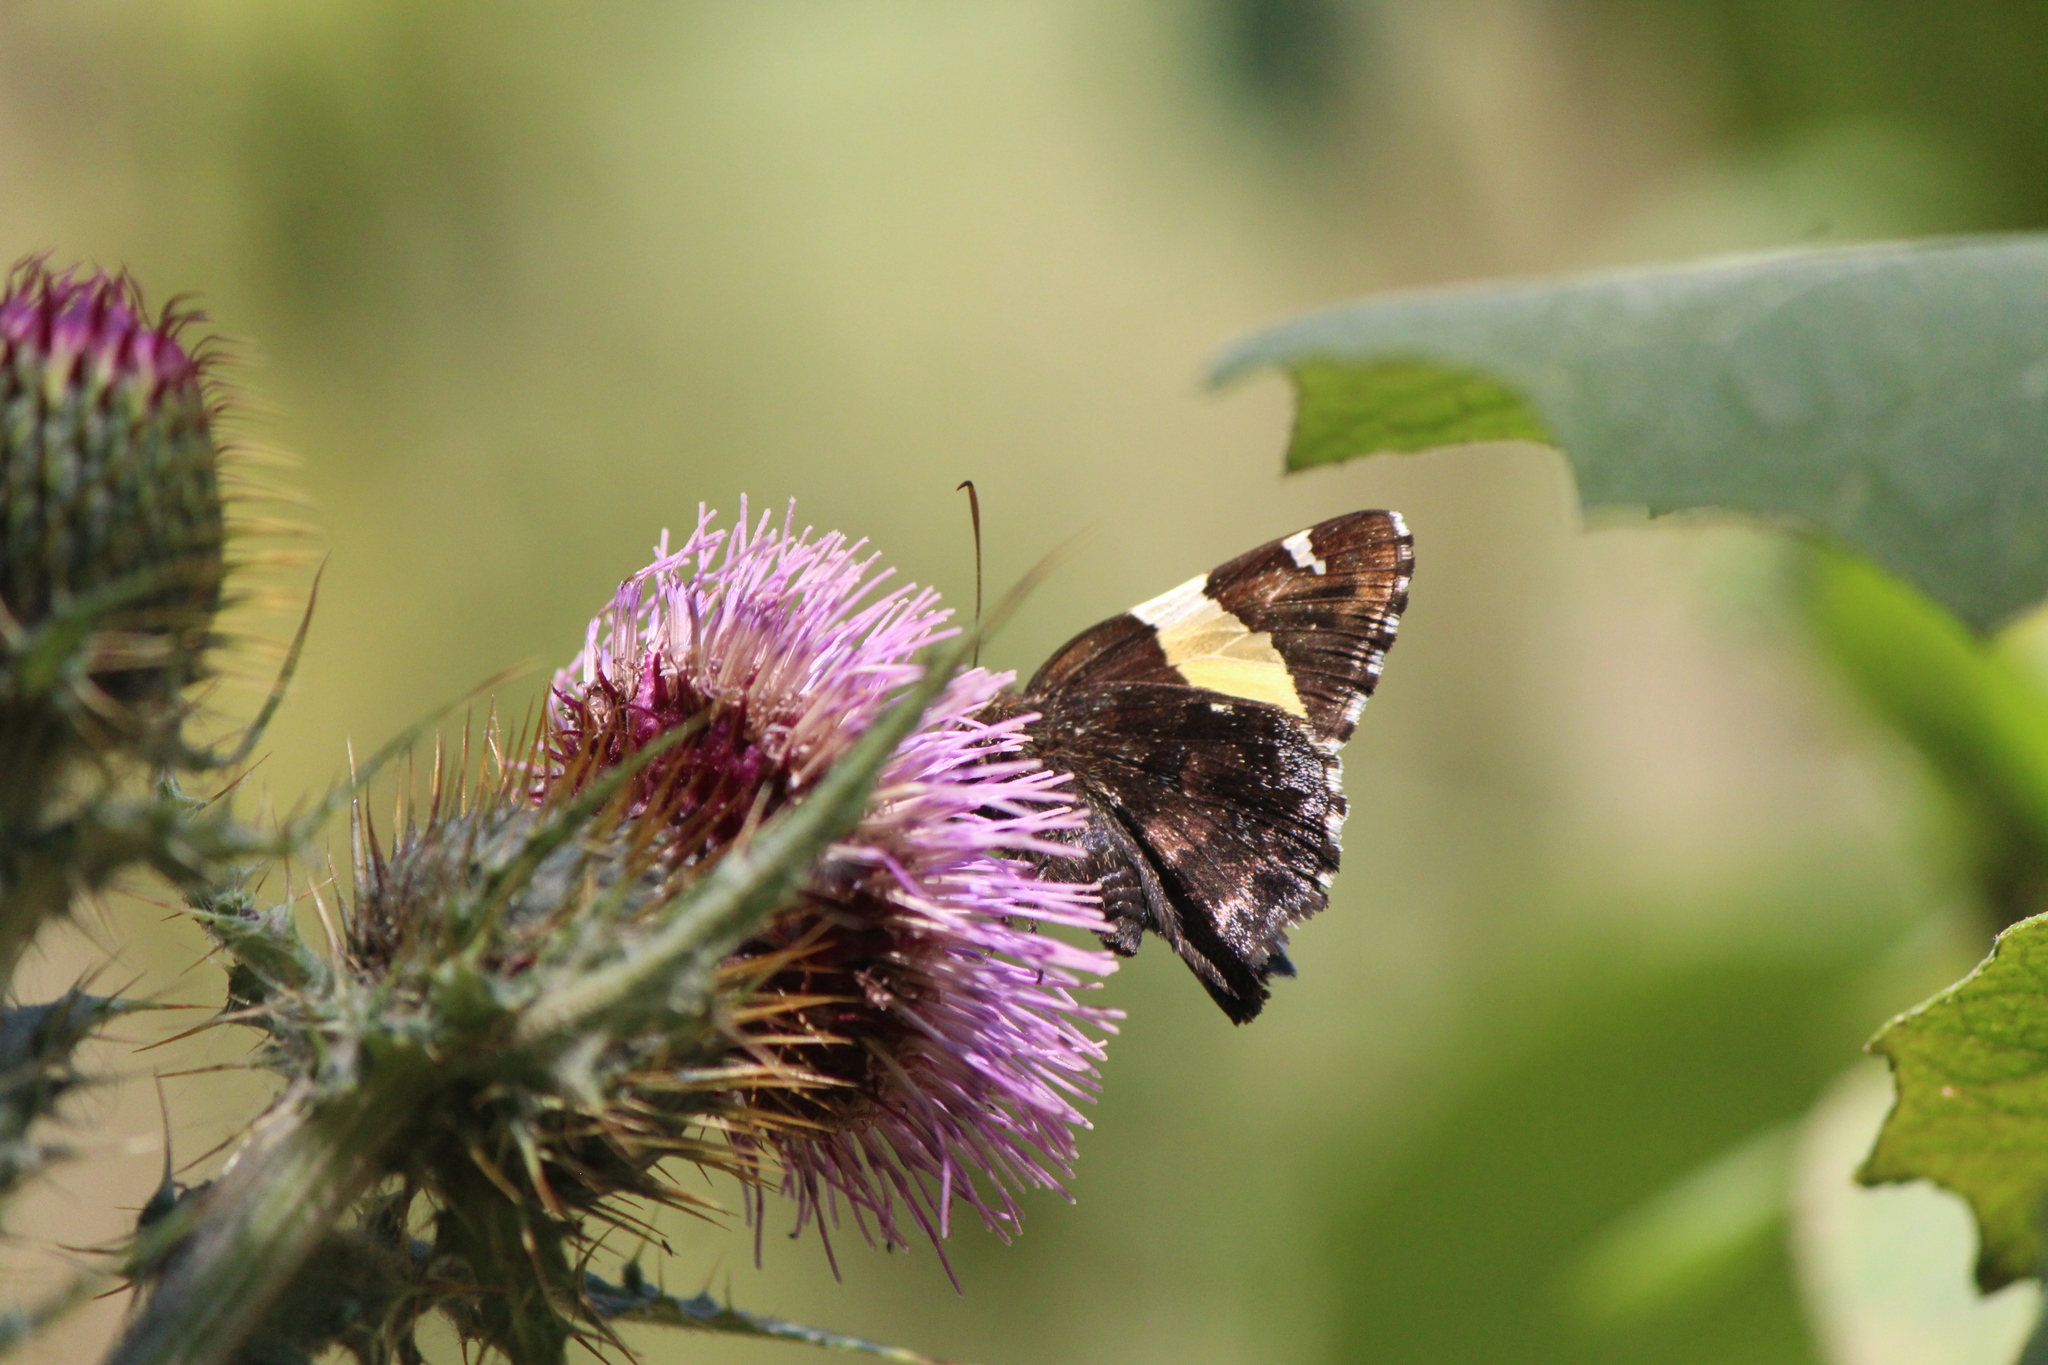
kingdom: Animalia
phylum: Arthropoda
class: Arachnida
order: Scorpiones
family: Bothriuridae
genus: Telegonus
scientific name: Telegonus cellus
